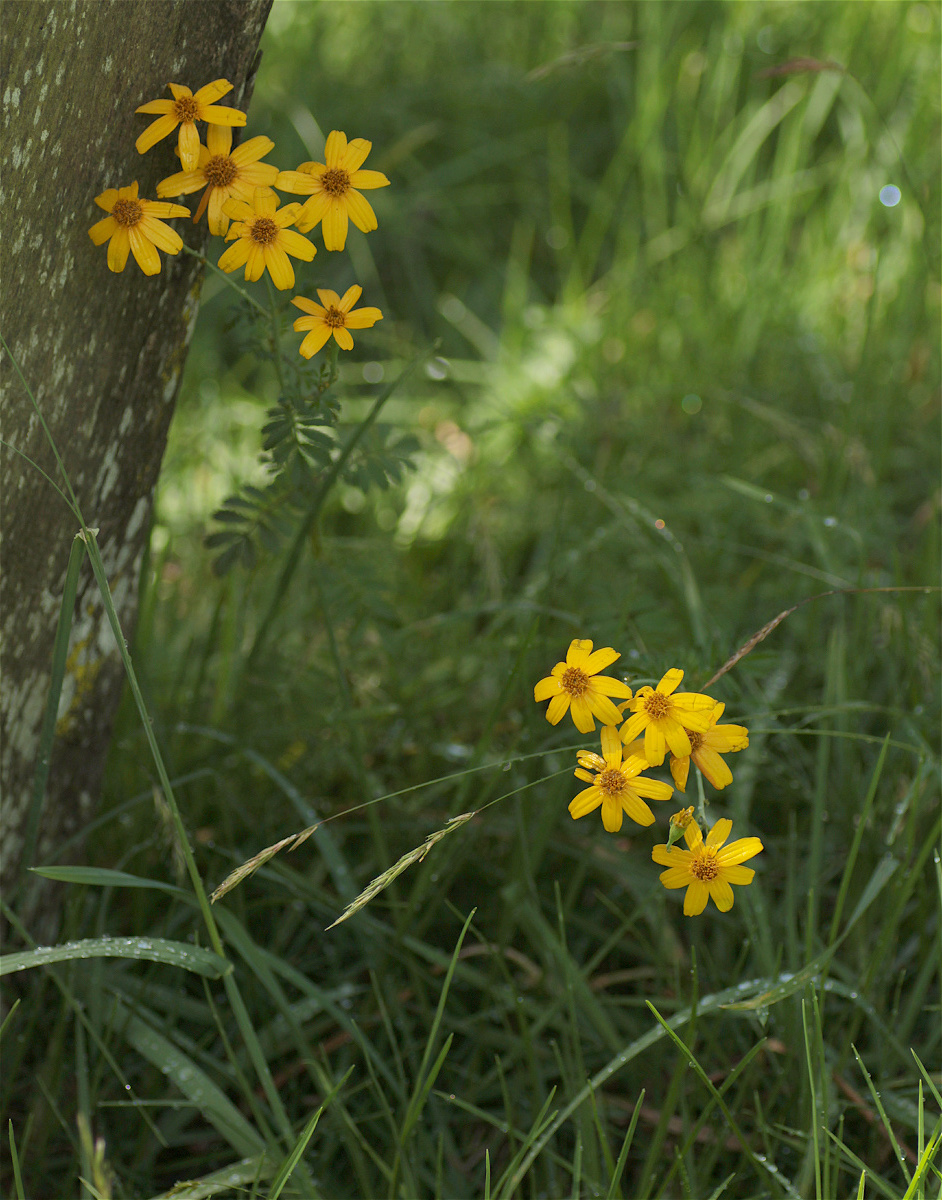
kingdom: Plantae
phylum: Tracheophyta
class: Magnoliopsida
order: Asterales
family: Asteraceae
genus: Tagetes
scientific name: Tagetes zypaquirensis
